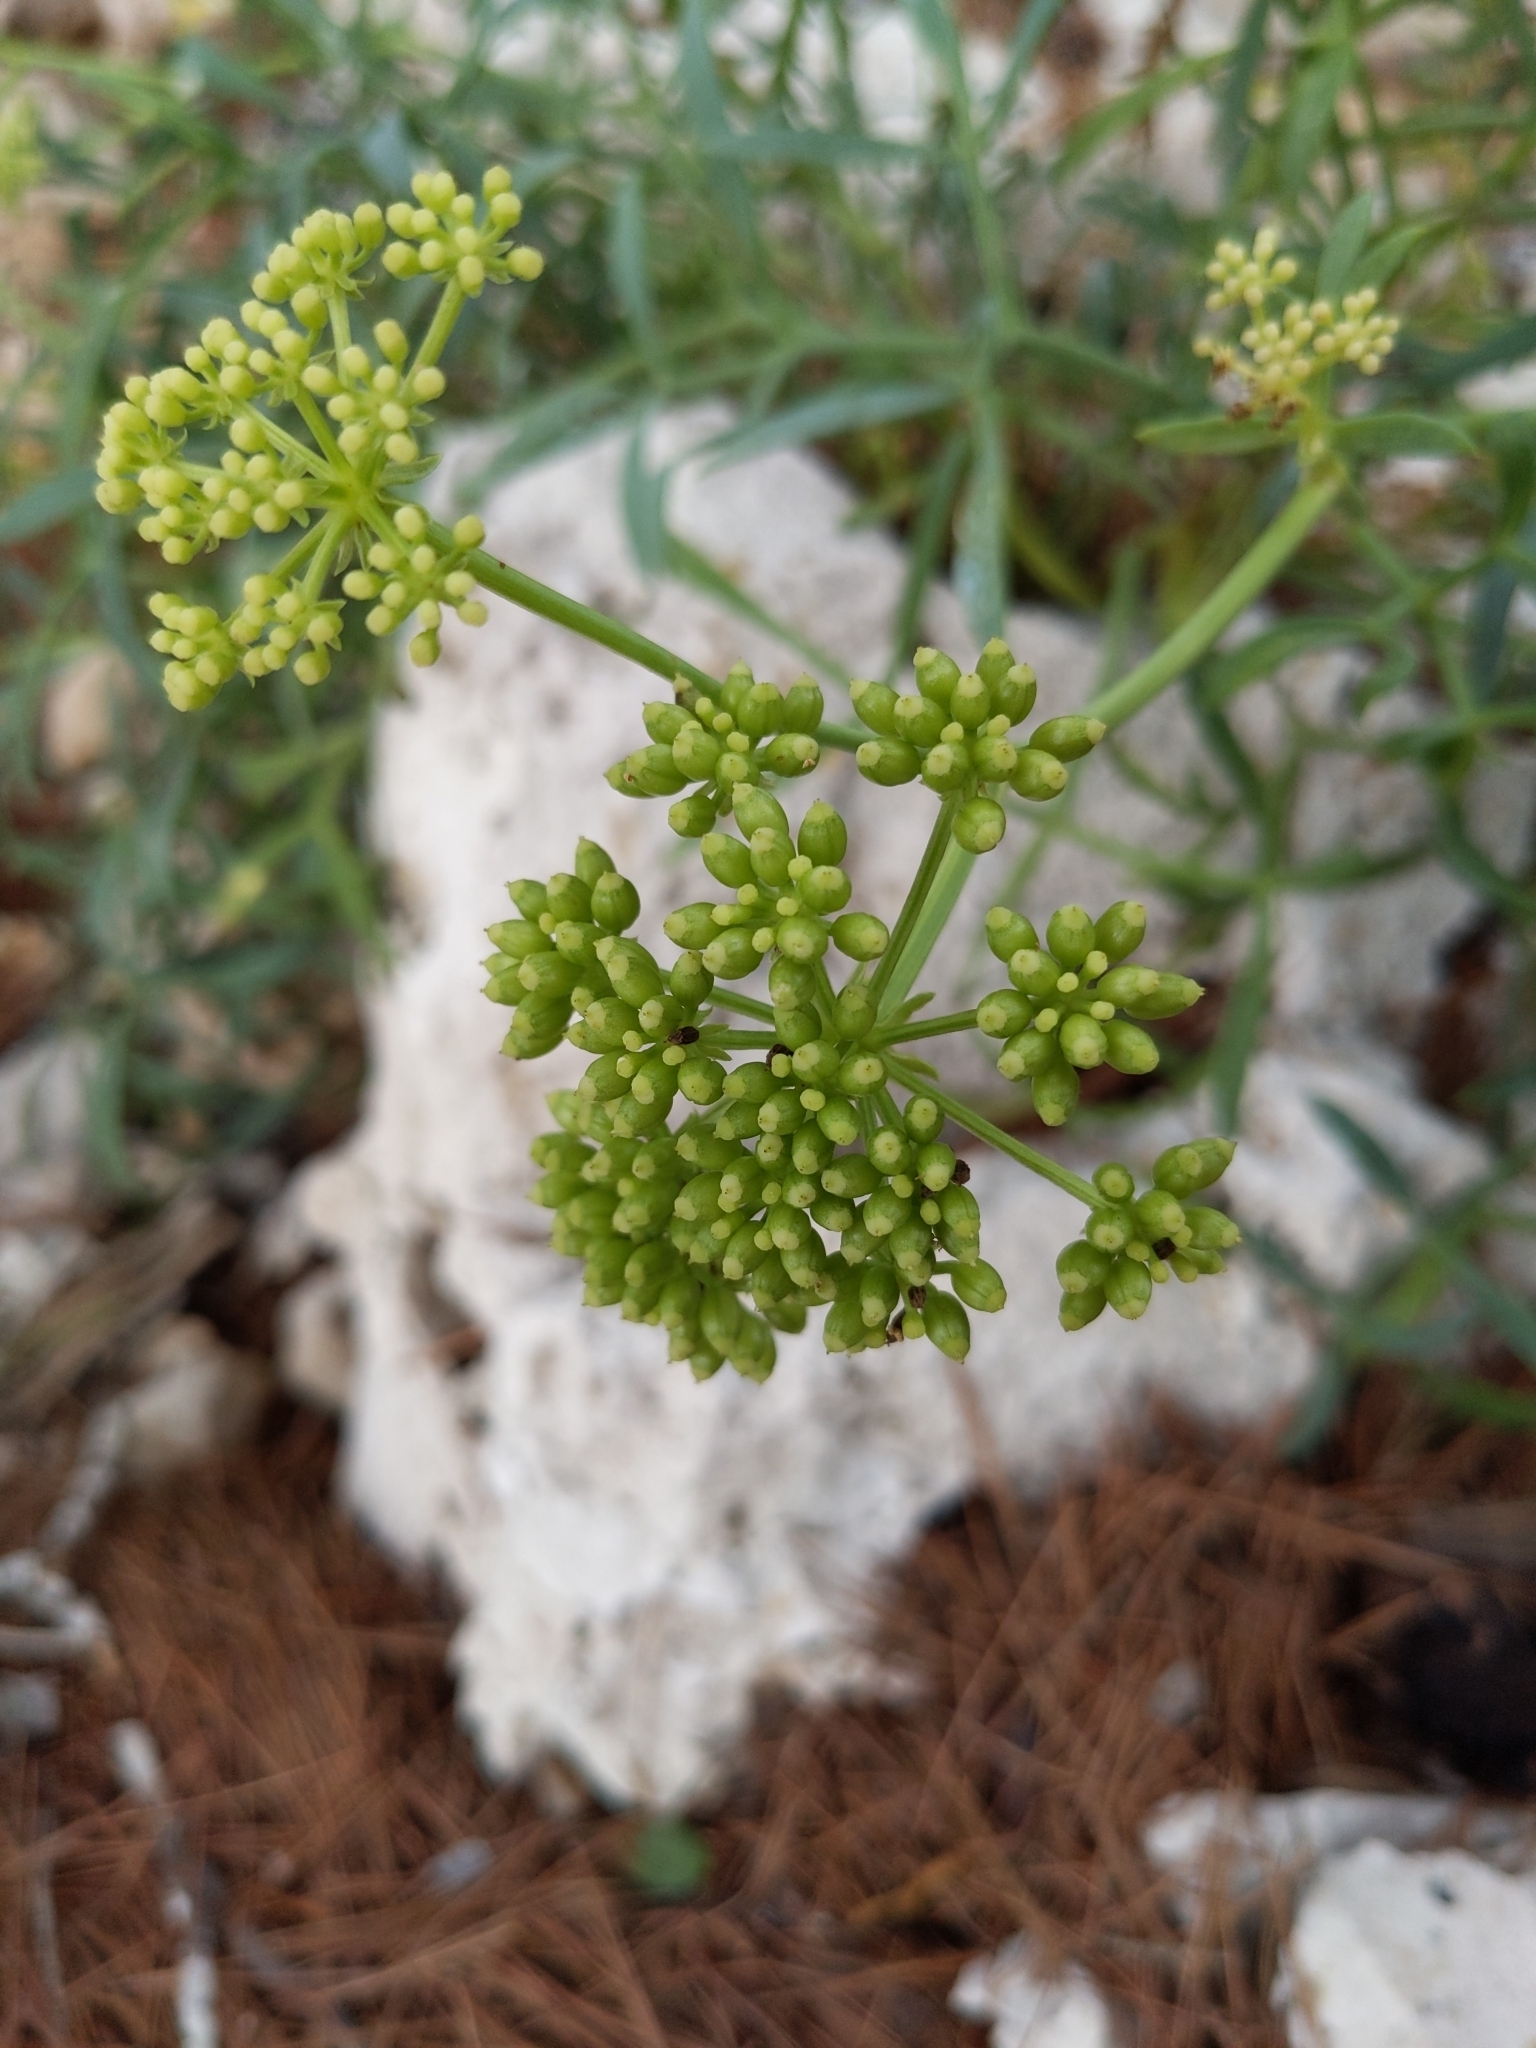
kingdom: Plantae
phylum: Tracheophyta
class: Magnoliopsida
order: Apiales
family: Apiaceae
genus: Crithmum
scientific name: Crithmum maritimum
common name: Rock samphire
